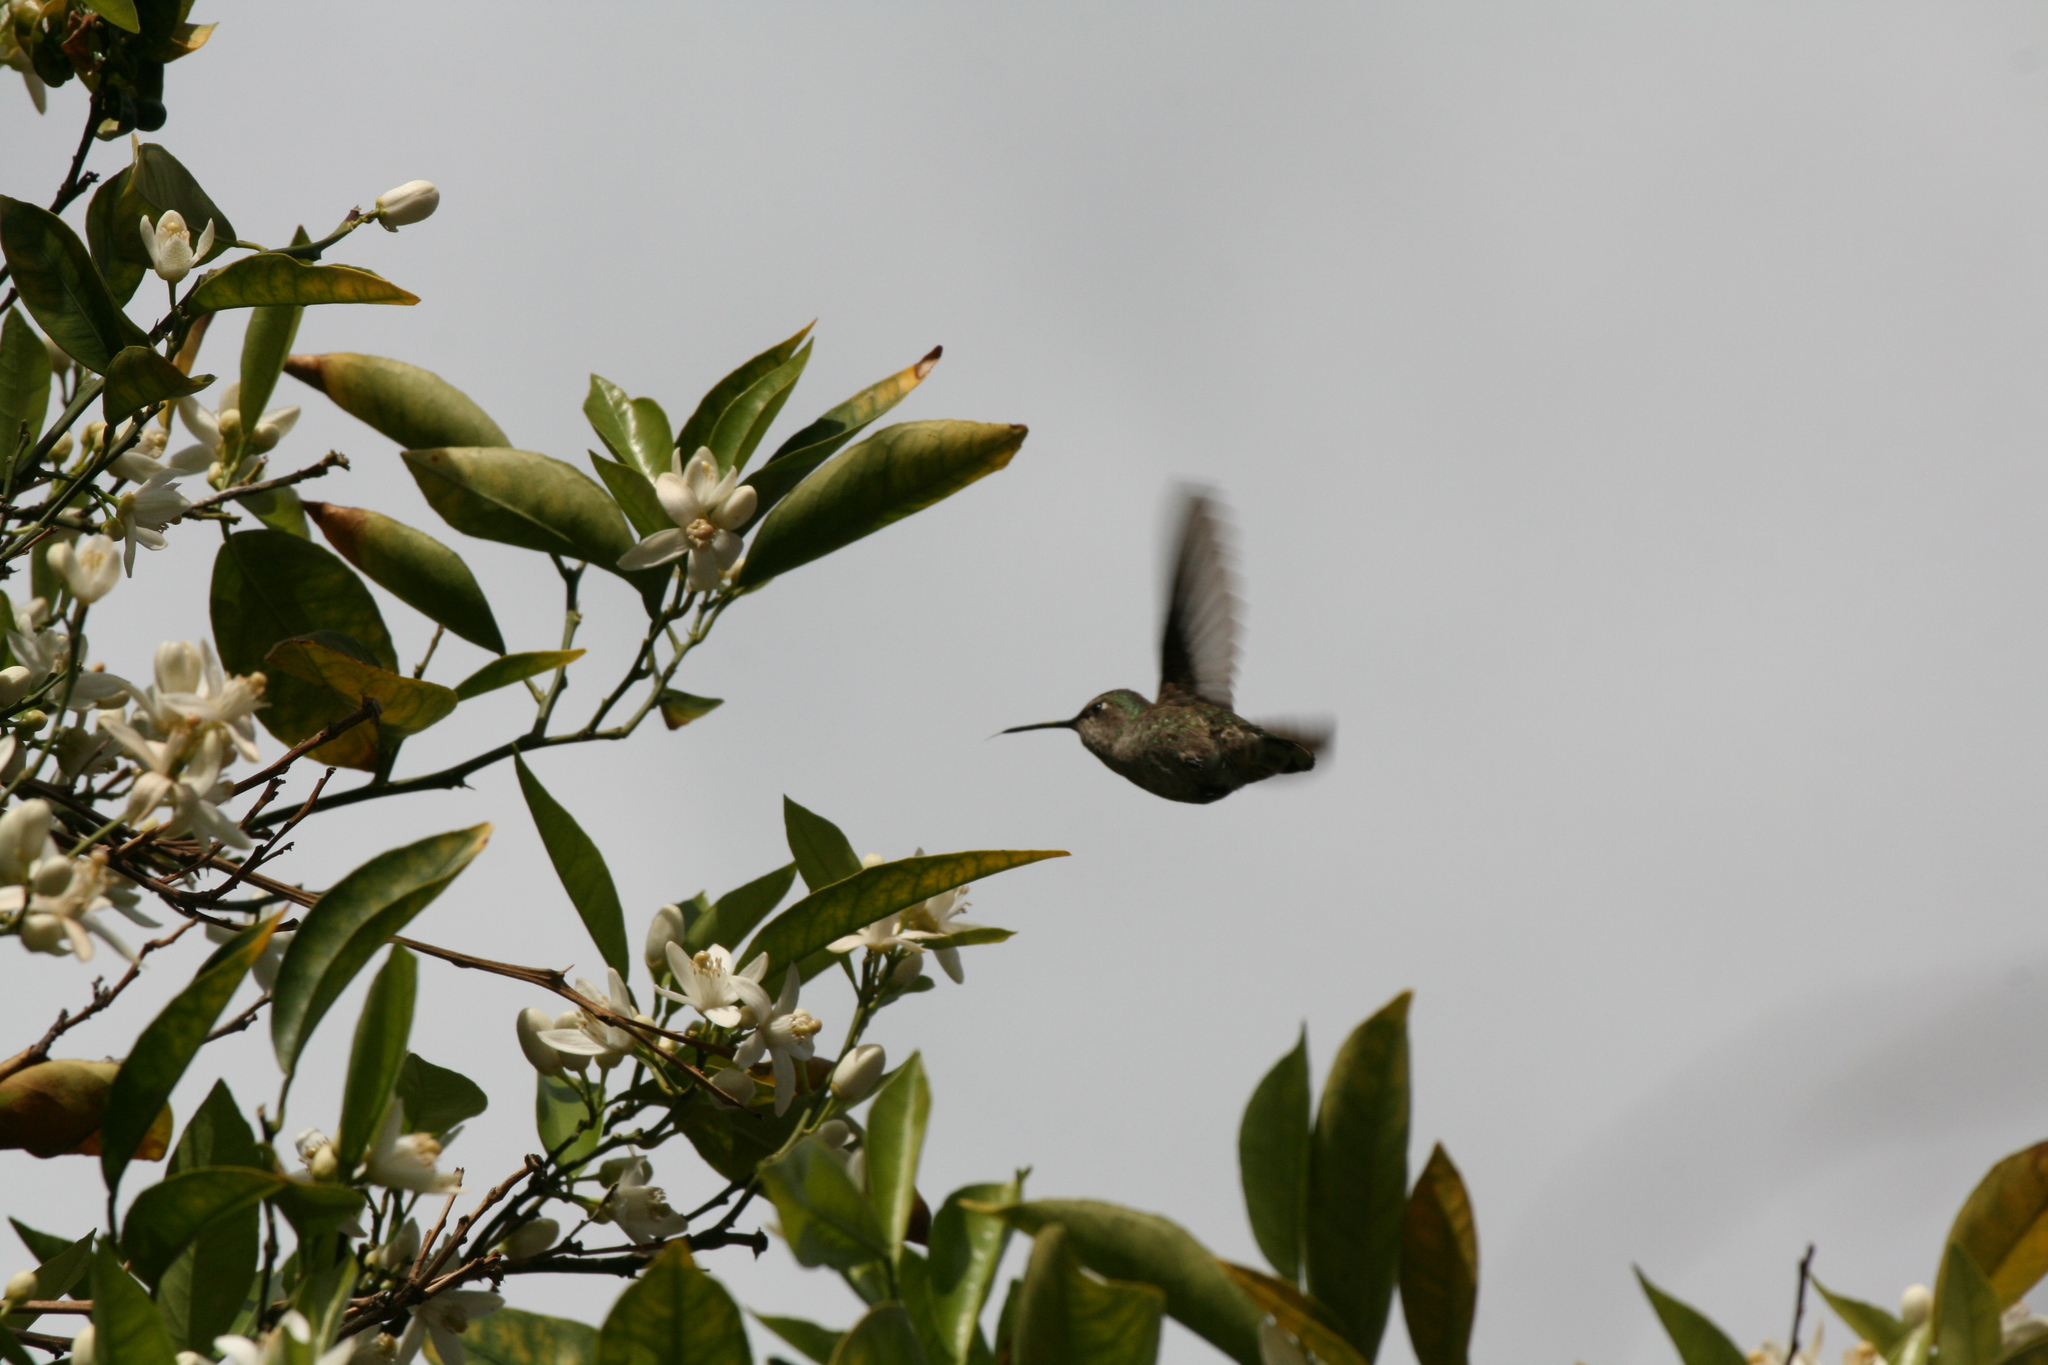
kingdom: Animalia
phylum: Chordata
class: Aves
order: Apodiformes
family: Trochilidae
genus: Calypte
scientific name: Calypte anna
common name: Anna's hummingbird
